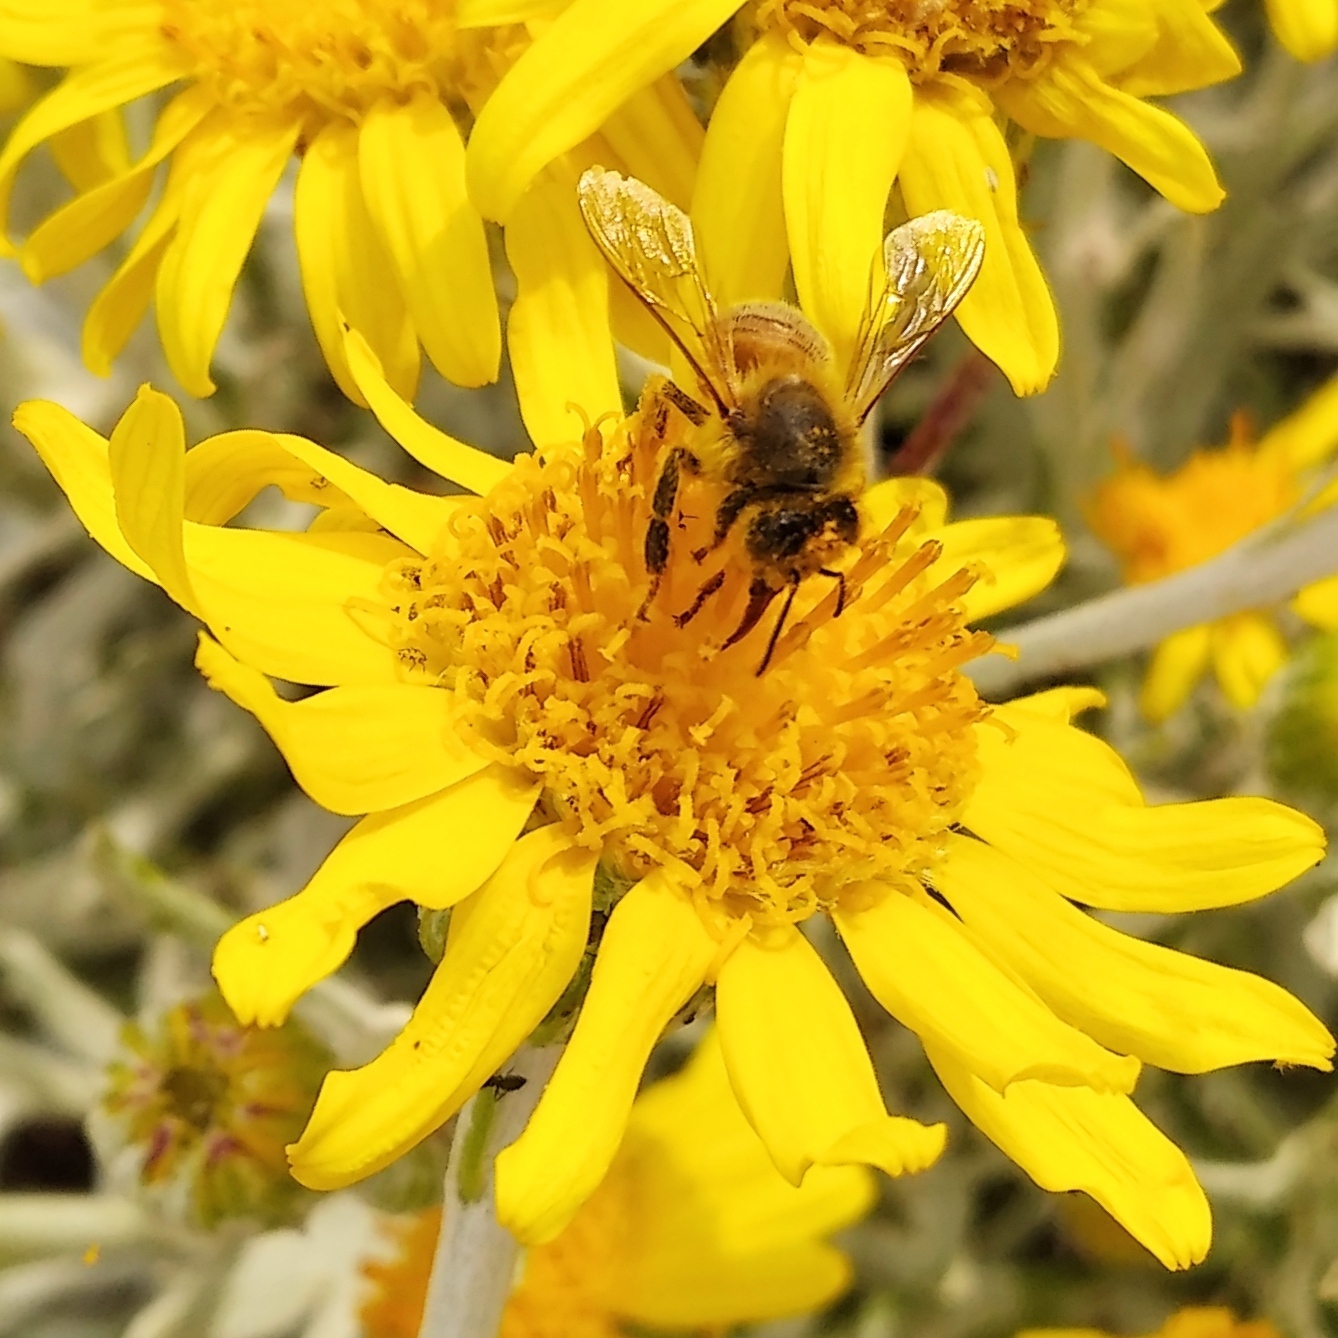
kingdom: Animalia
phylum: Arthropoda
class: Insecta
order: Hymenoptera
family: Apidae
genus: Apis
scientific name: Apis mellifera
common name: Honey bee
